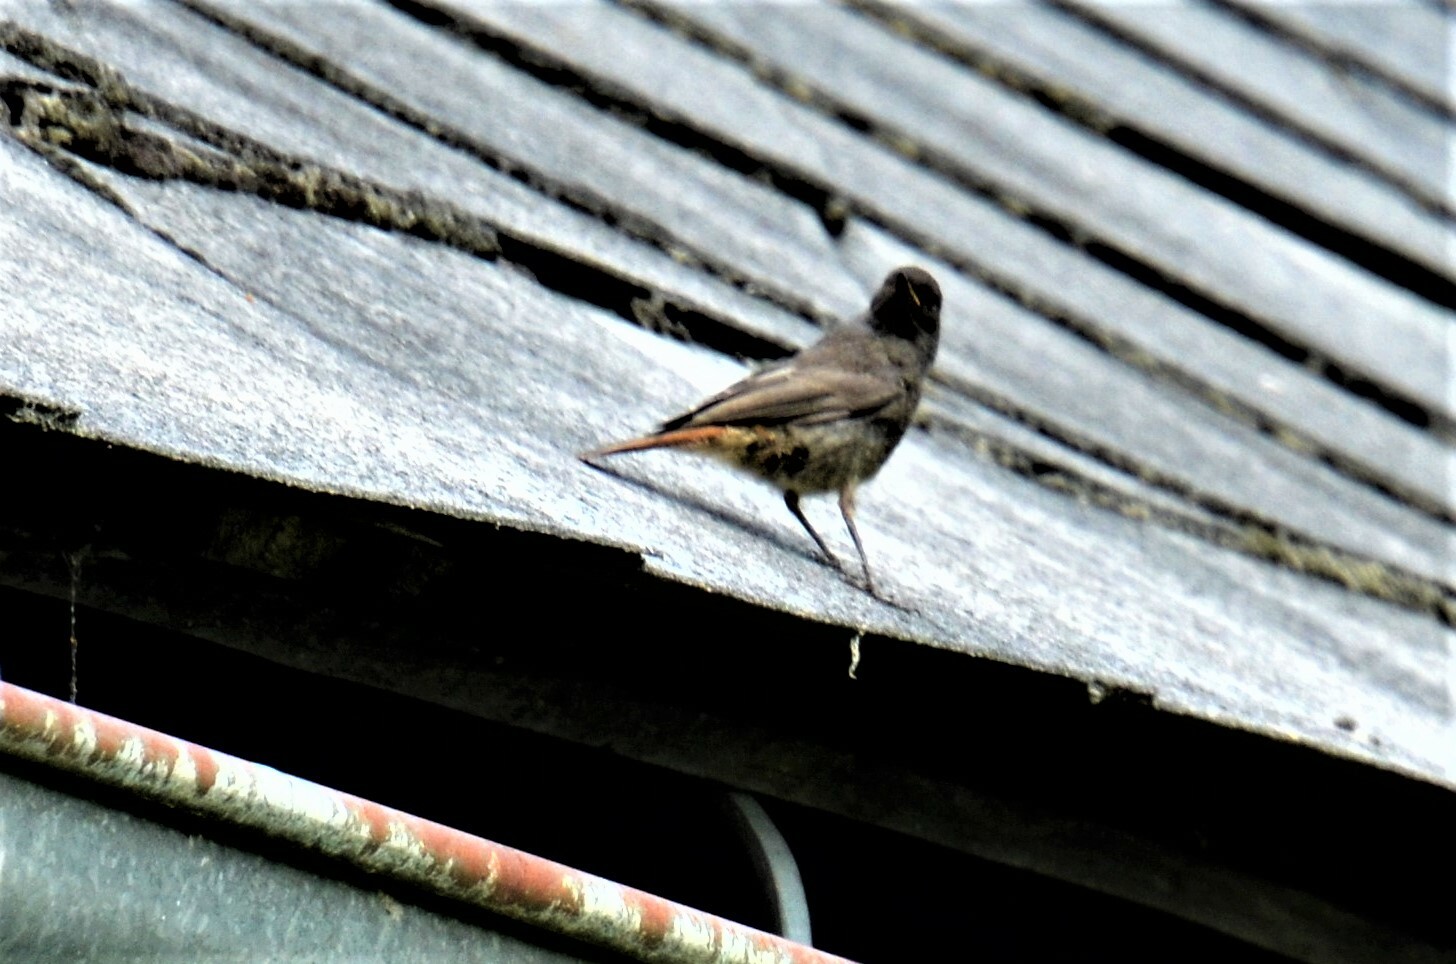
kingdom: Animalia
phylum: Chordata
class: Aves
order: Passeriformes
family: Muscicapidae
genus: Phoenicurus
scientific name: Phoenicurus ochruros
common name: Black redstart
